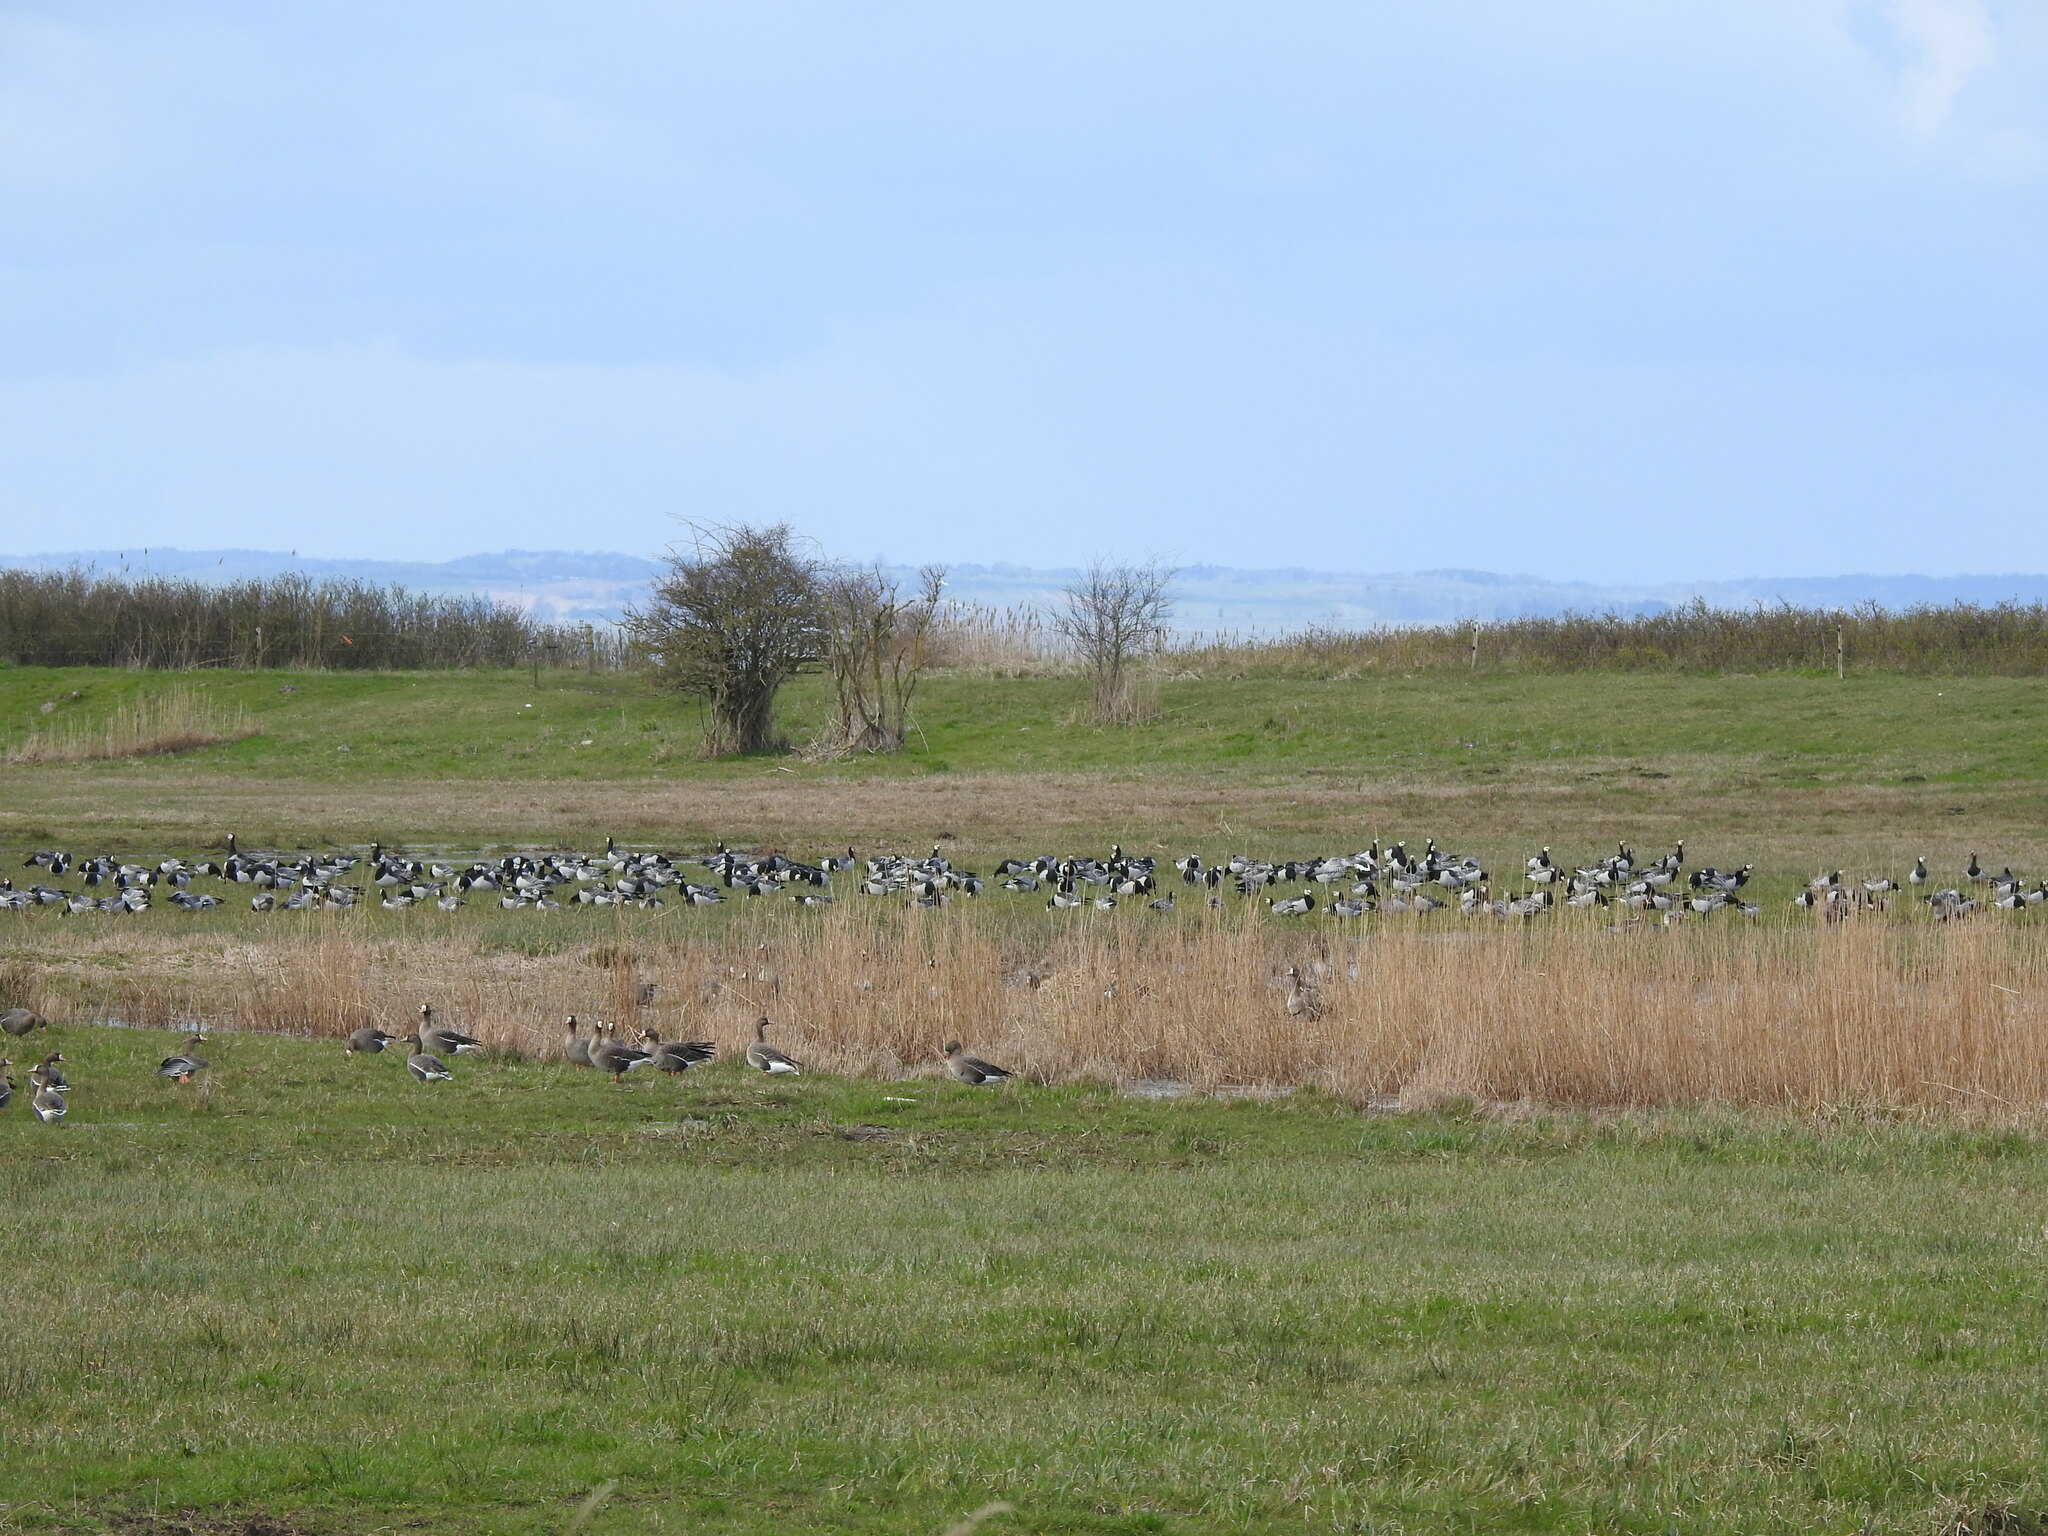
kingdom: Animalia
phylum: Chordata
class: Aves
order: Anseriformes
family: Anatidae
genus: Branta
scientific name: Branta leucopsis
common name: Barnacle goose
